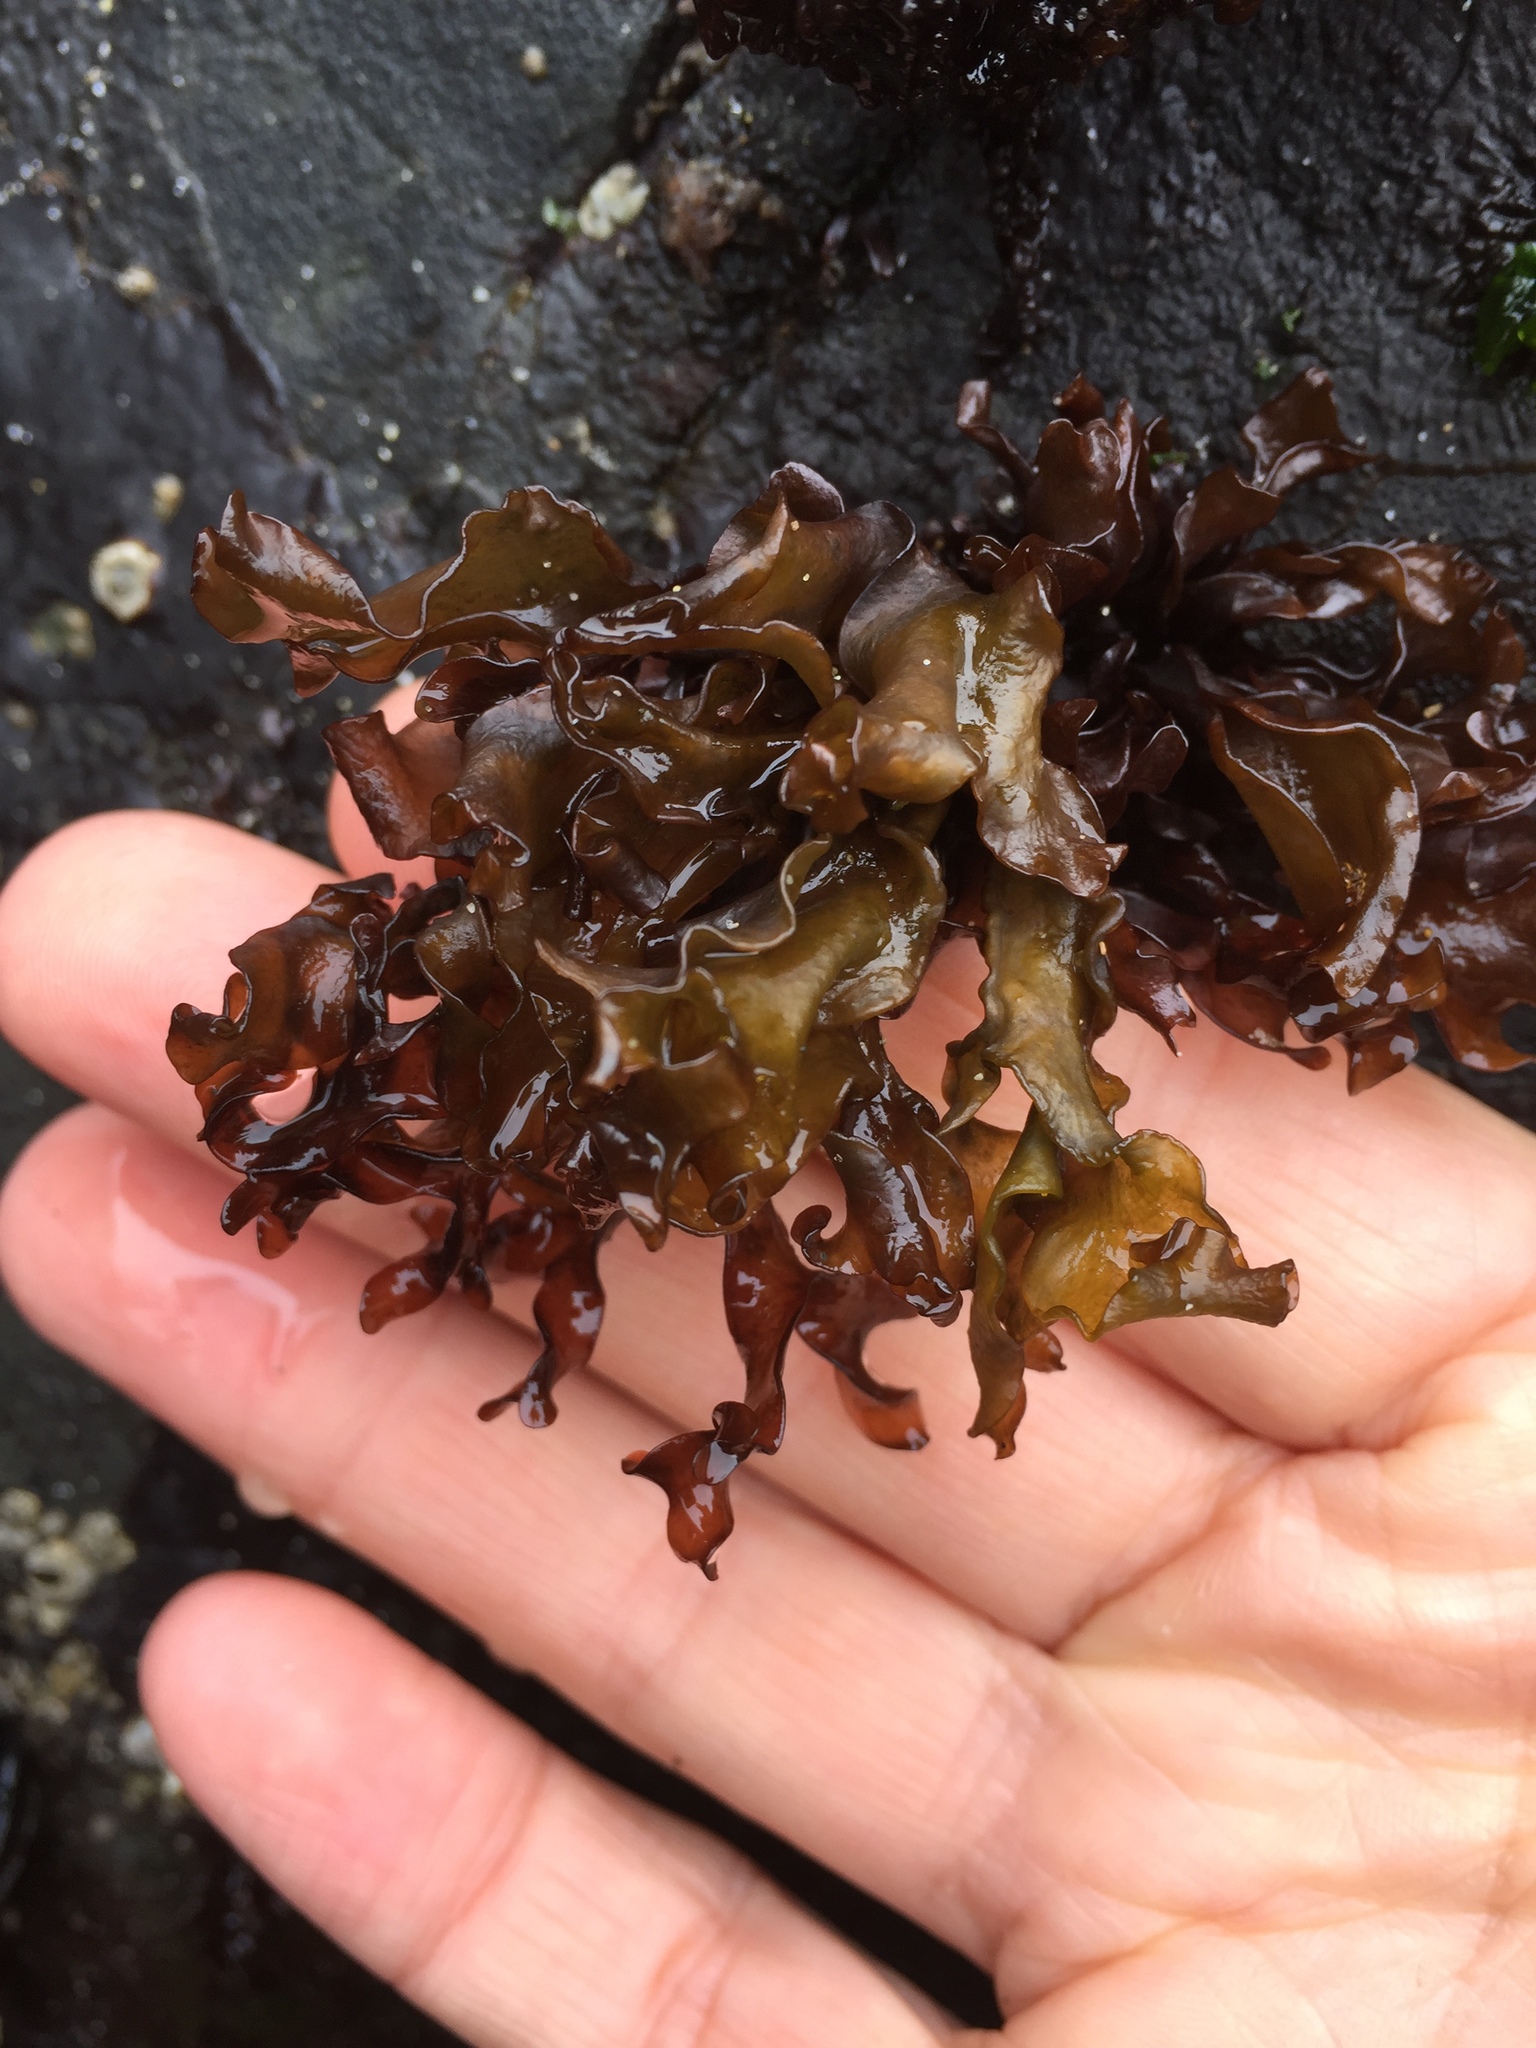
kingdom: Plantae
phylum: Rhodophyta
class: Florideophyceae
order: Gigartinales
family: Gigartinaceae
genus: Mazzaella
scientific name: Mazzaella parksii
